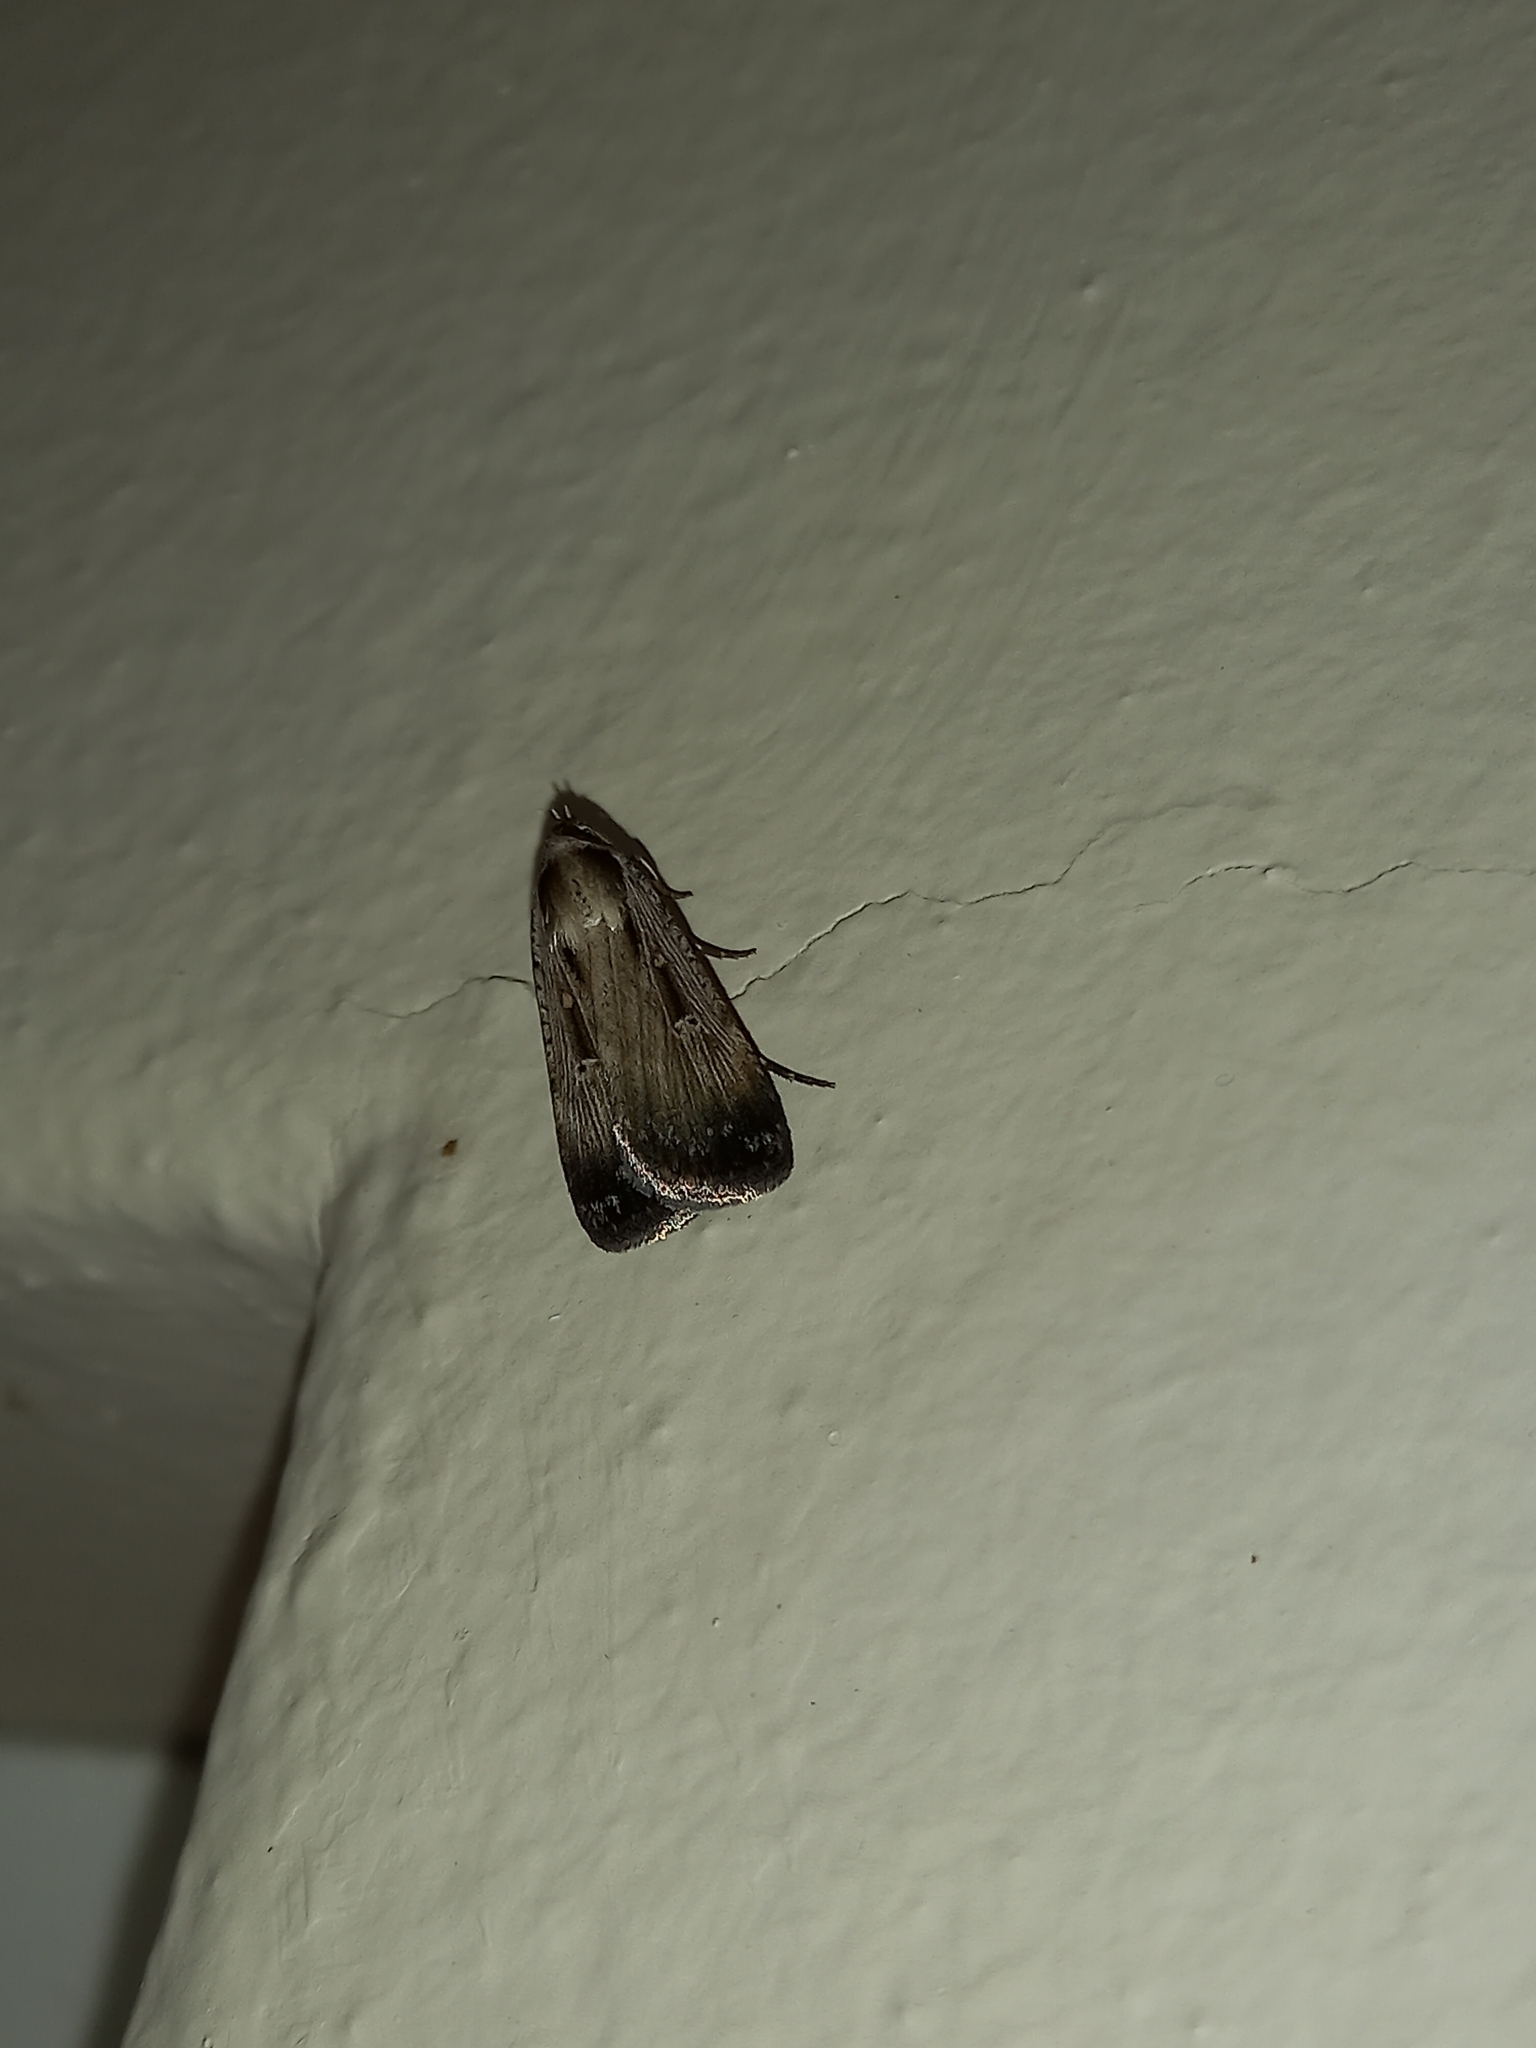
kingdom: Animalia
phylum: Arthropoda
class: Insecta
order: Lepidoptera
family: Noctuidae
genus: Tathorhynchus
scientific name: Tathorhynchus exsiccata
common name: Levant blackneck moth
